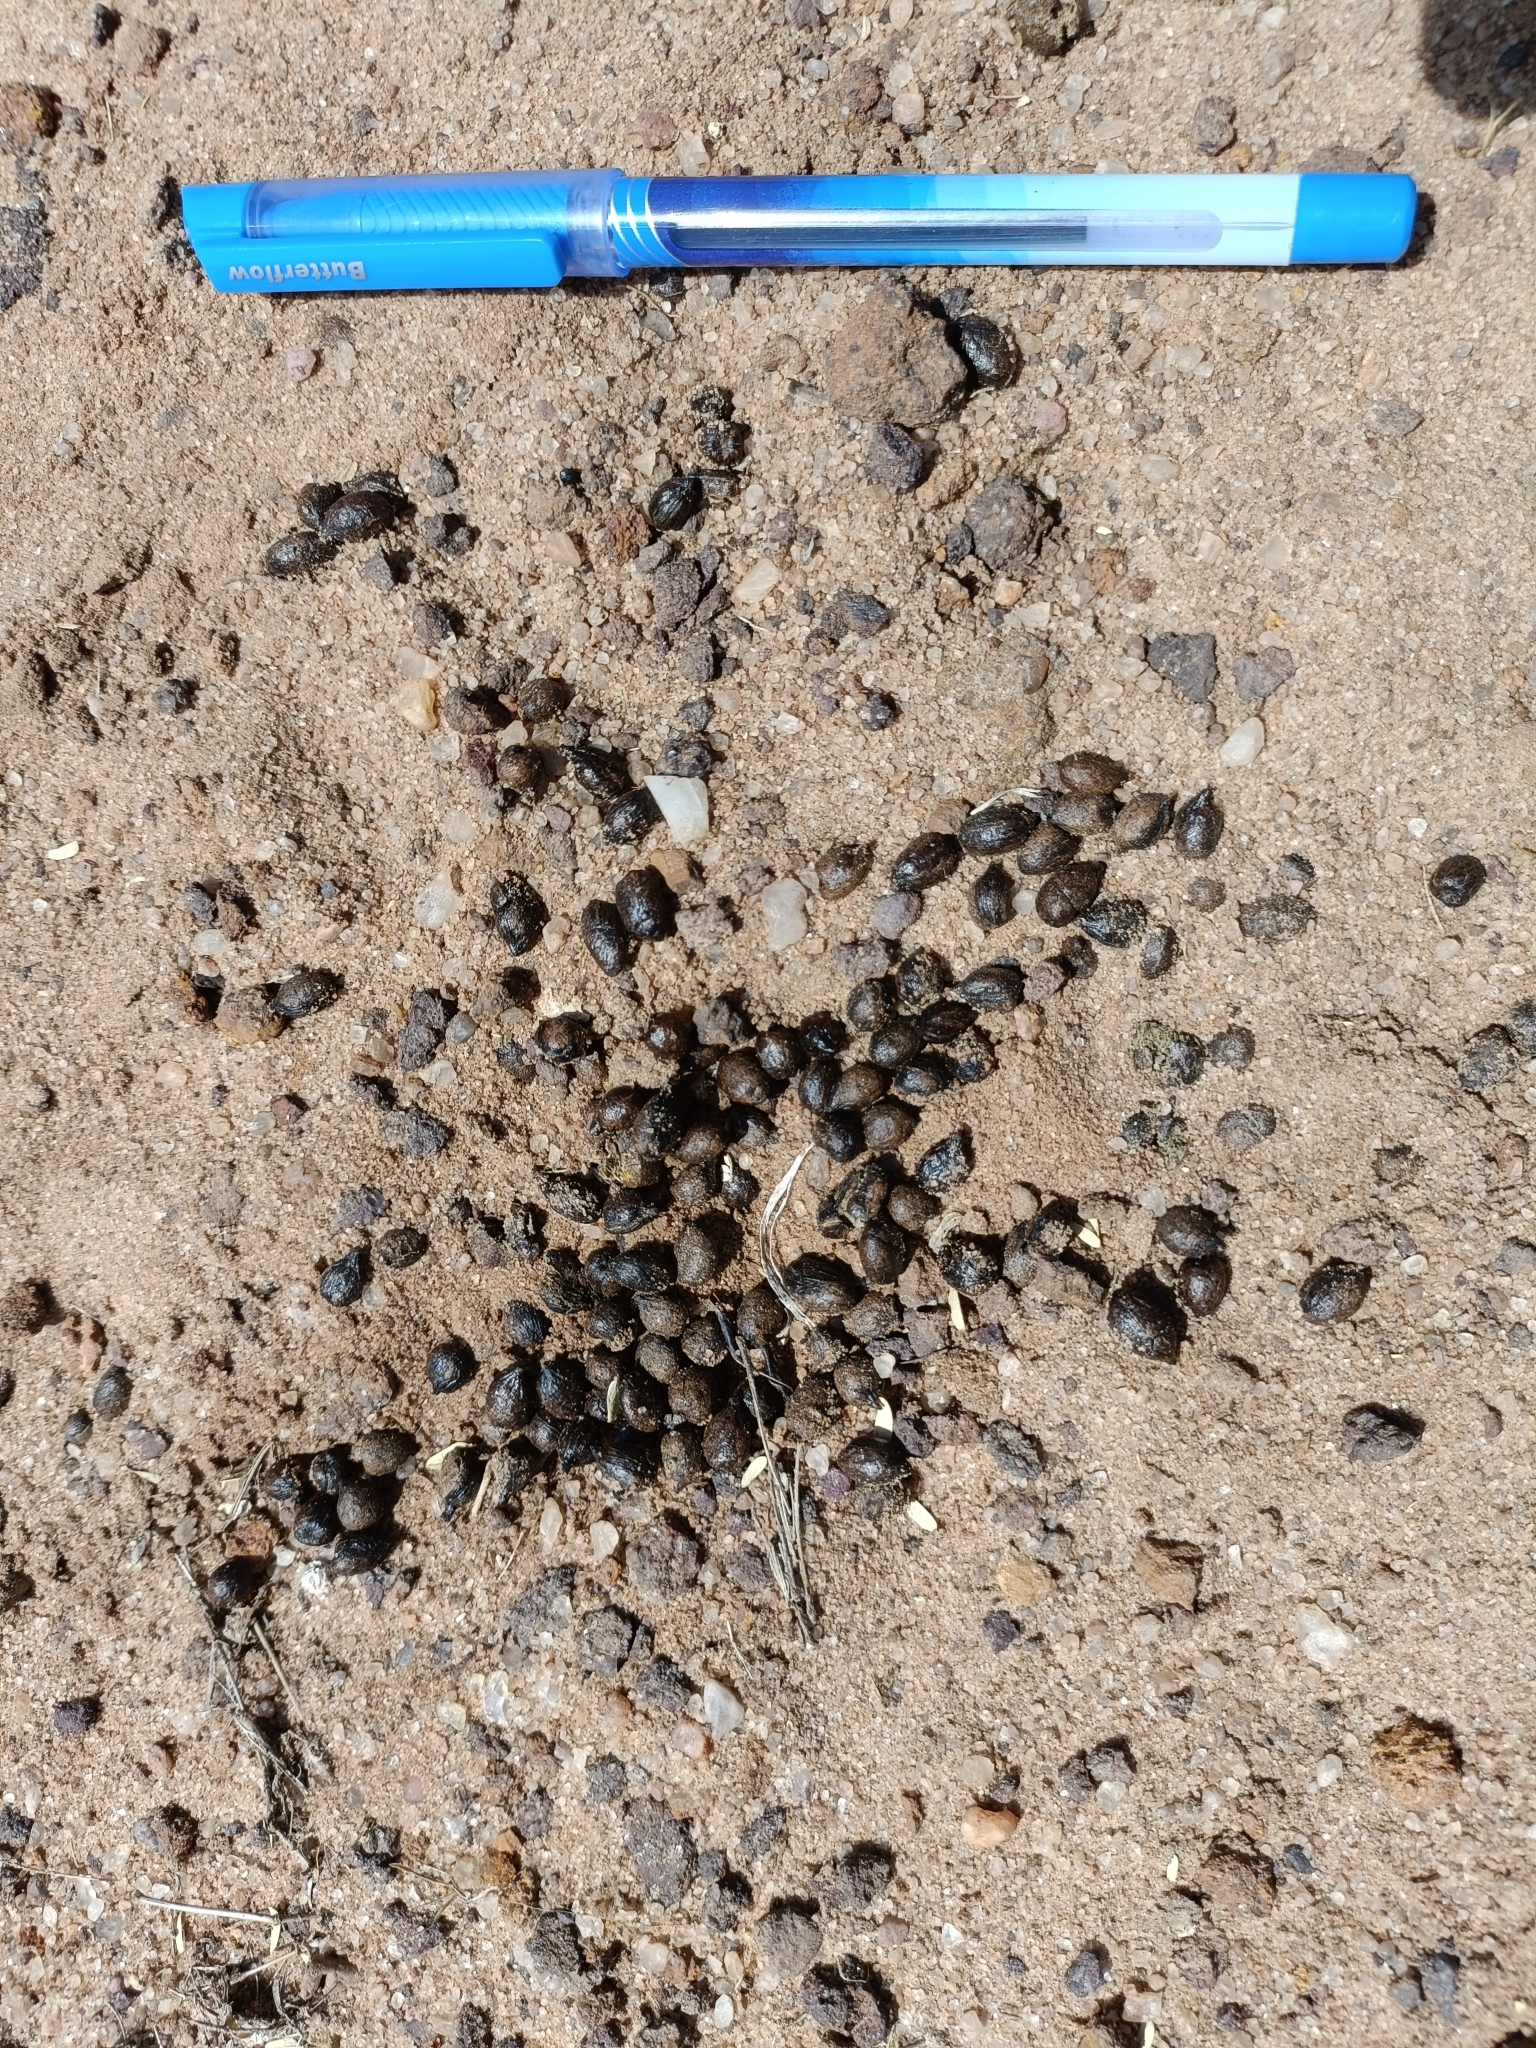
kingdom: Animalia
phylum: Chordata
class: Mammalia
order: Artiodactyla
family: Bovidae
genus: Gazella
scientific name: Gazella bennettii
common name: Indian gazelle
